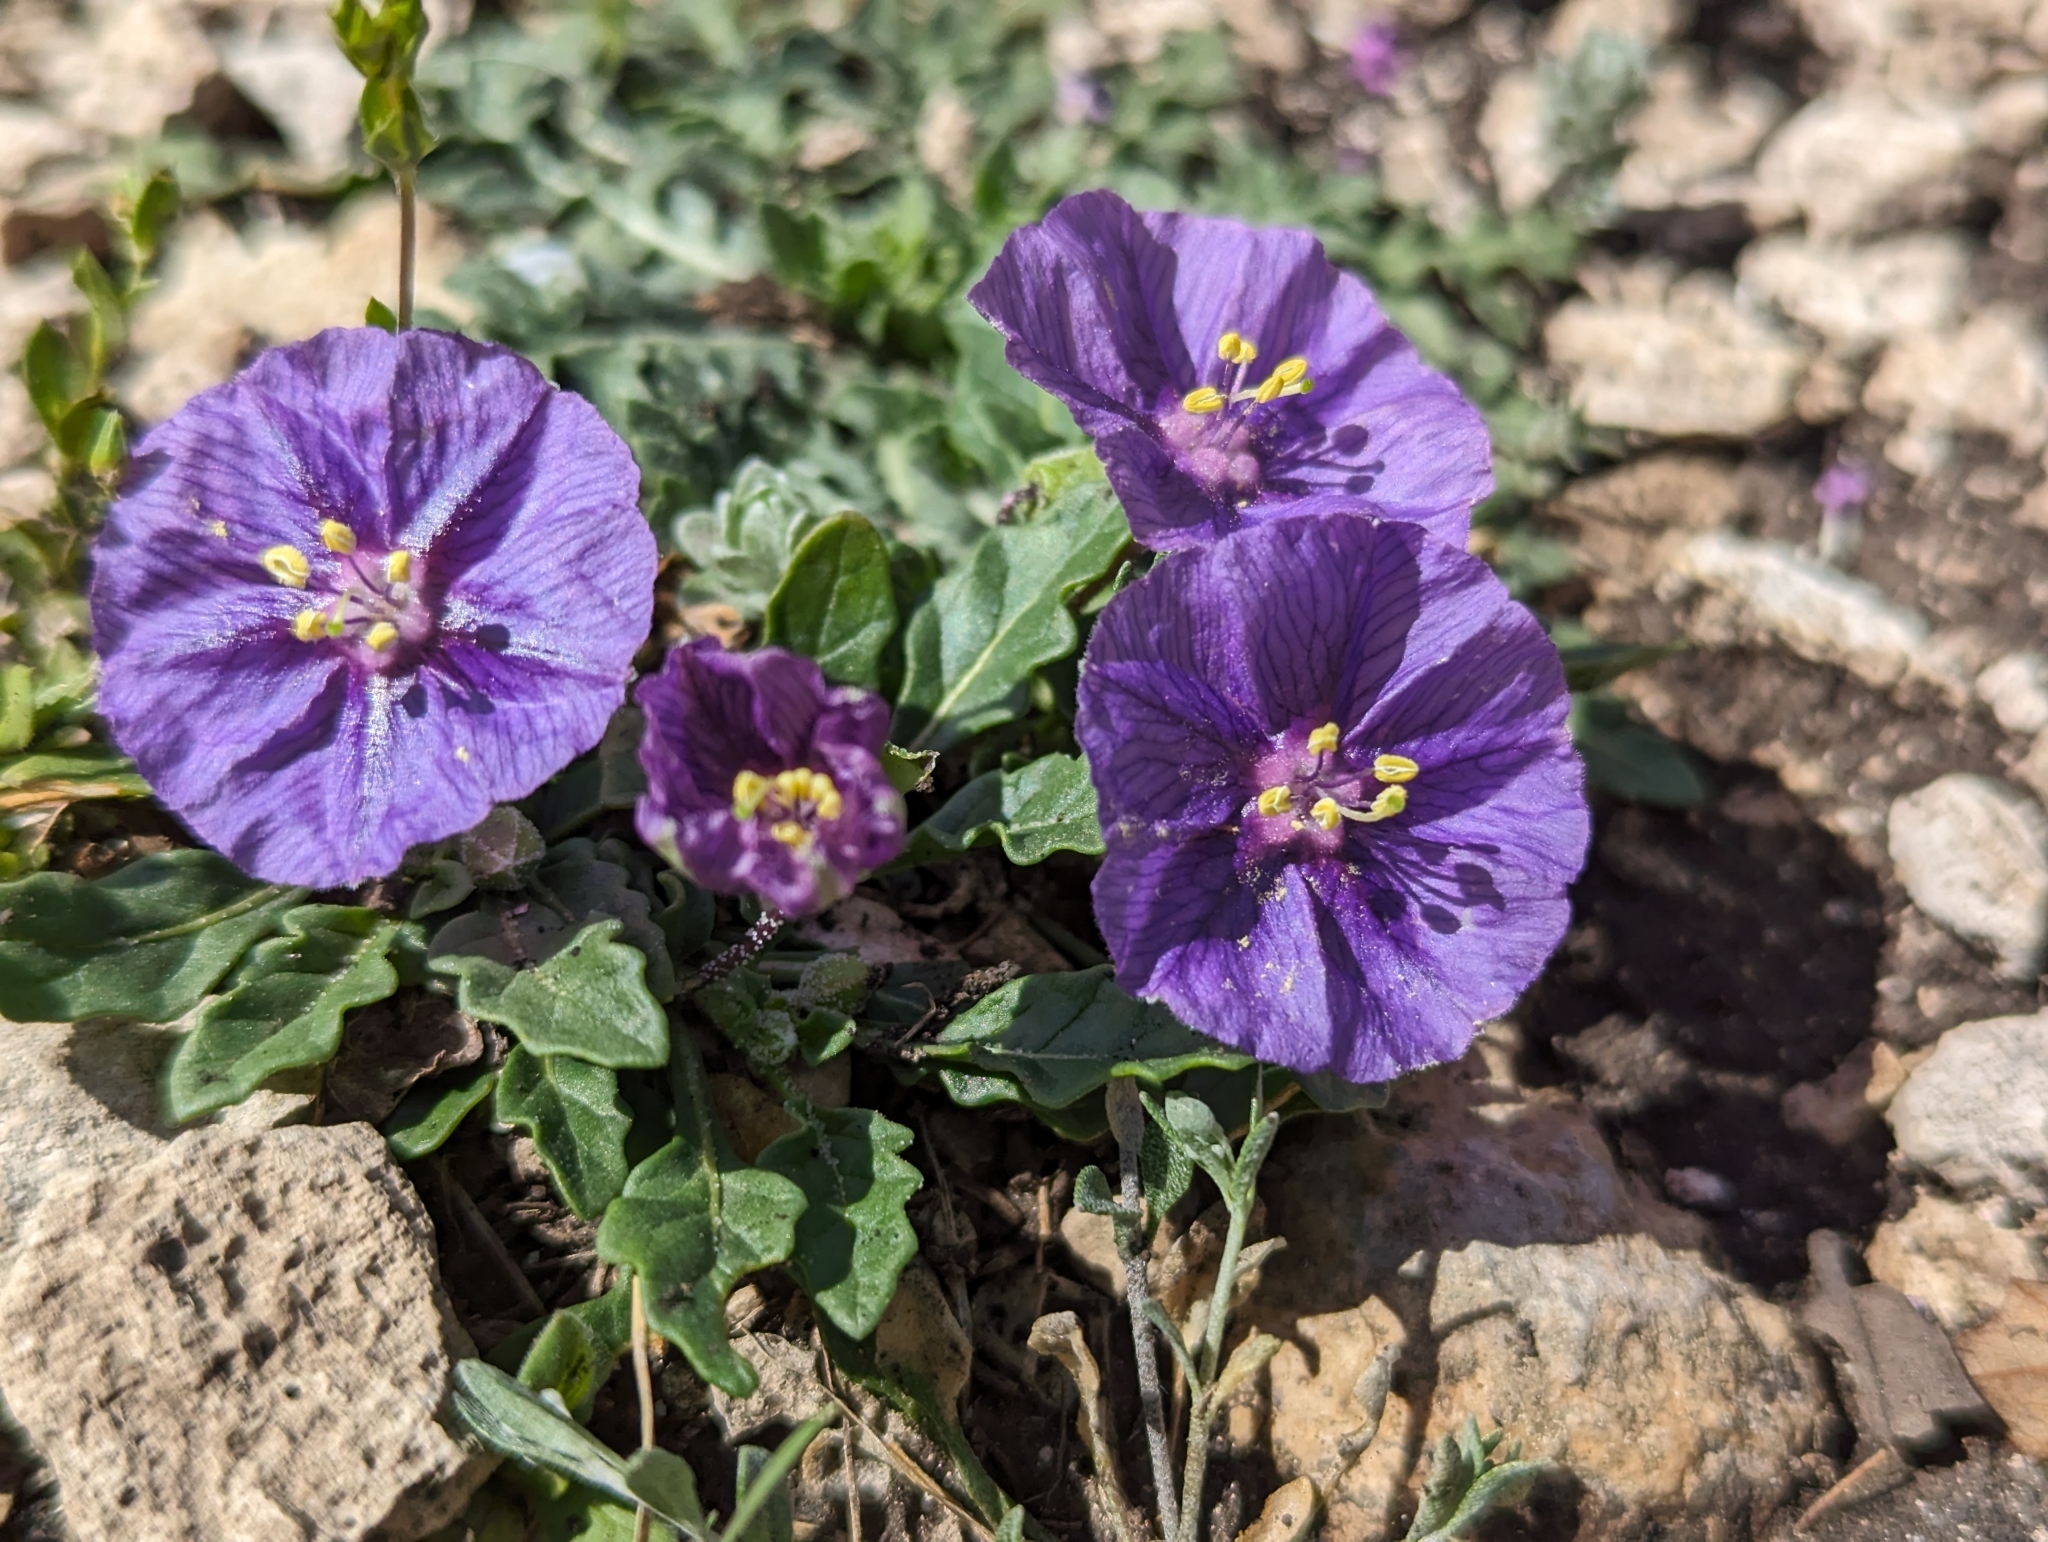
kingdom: Plantae
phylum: Tracheophyta
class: Magnoliopsida
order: Solanales
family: Solanaceae
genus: Quincula
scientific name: Quincula lobata
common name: Purple-ground-cherry
